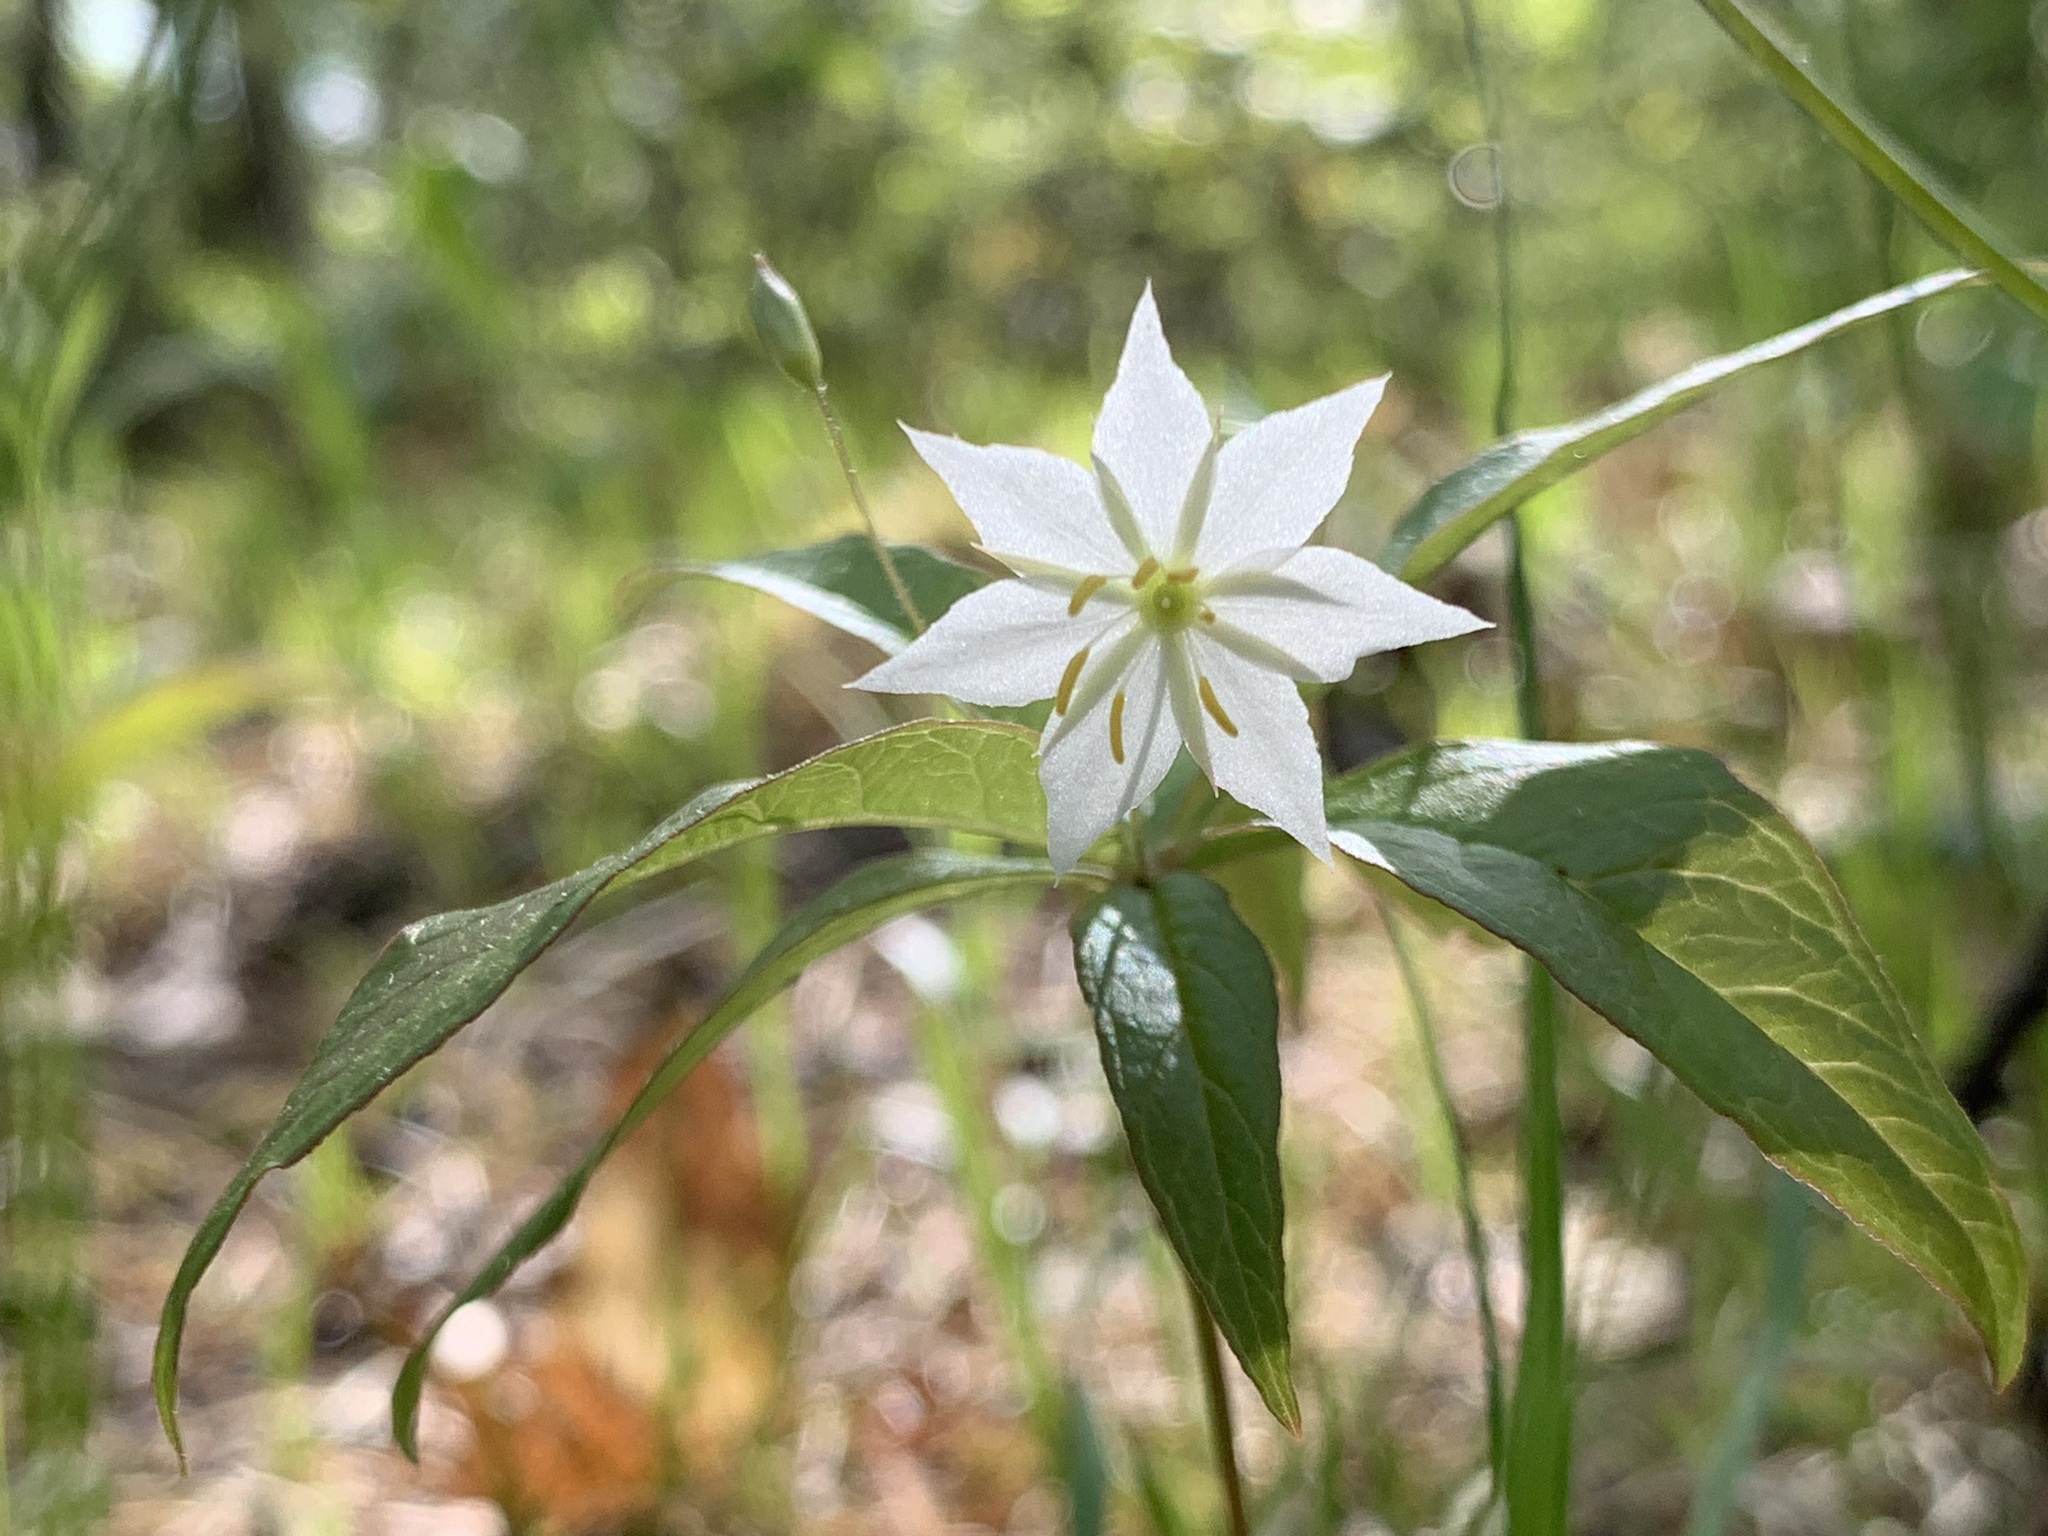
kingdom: Plantae
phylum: Tracheophyta
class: Magnoliopsida
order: Ericales
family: Primulaceae
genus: Lysimachia
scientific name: Lysimachia borealis
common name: American starflower
